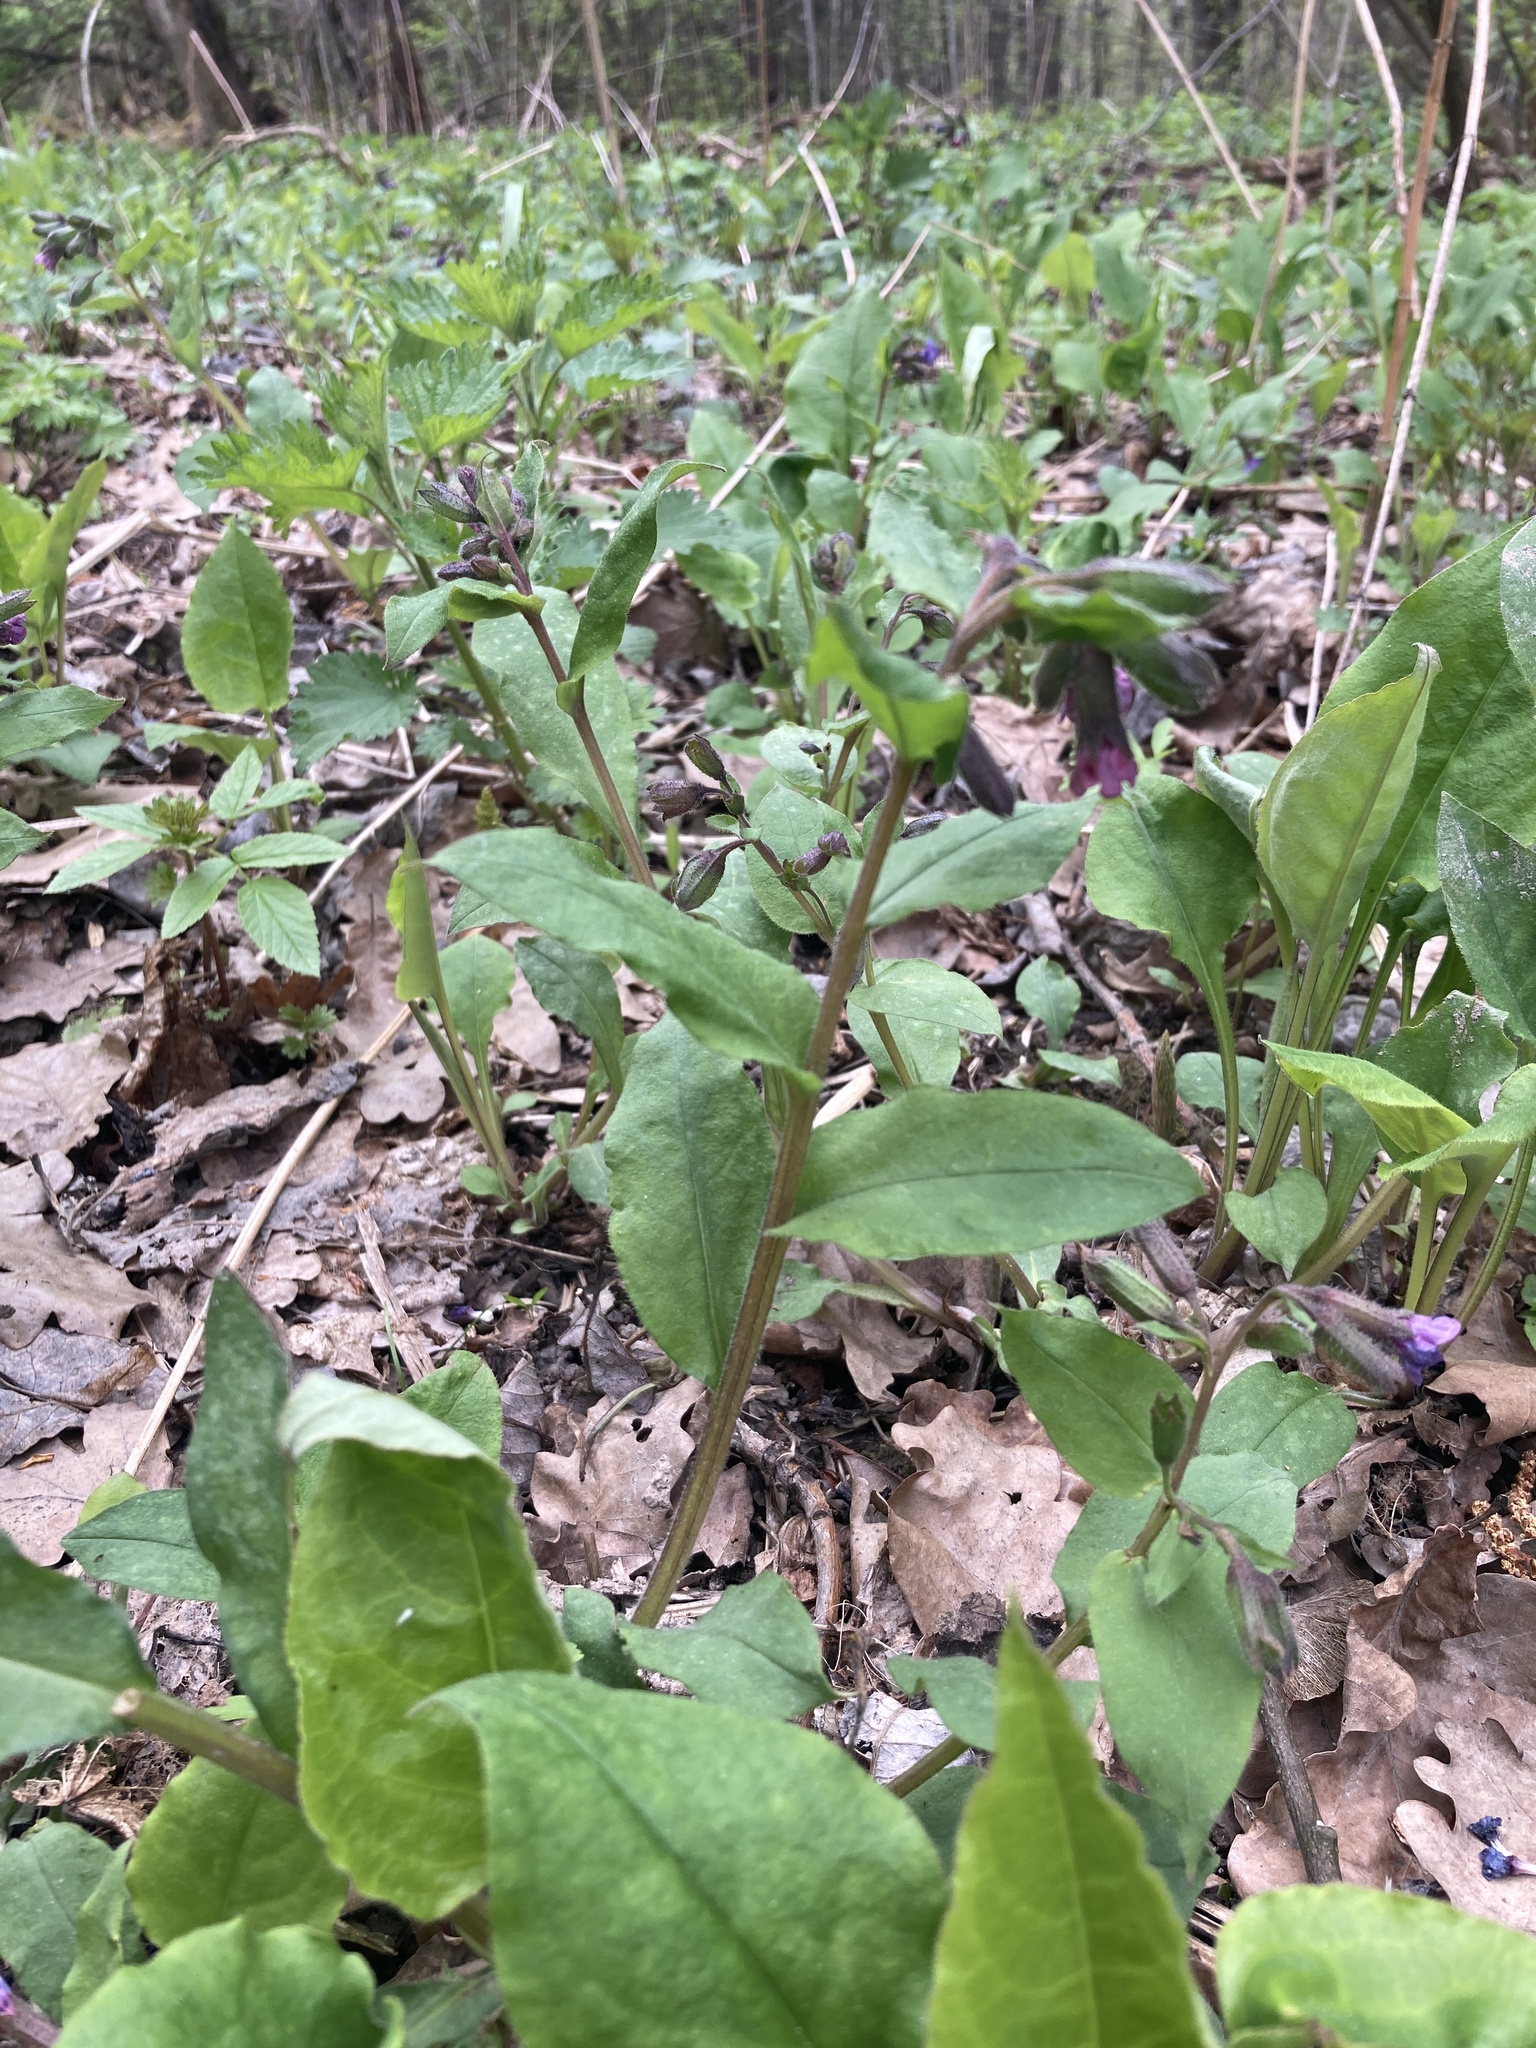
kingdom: Plantae
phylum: Tracheophyta
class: Magnoliopsida
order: Boraginales
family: Boraginaceae
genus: Pulmonaria
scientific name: Pulmonaria obscura
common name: Suffolk lungwort
